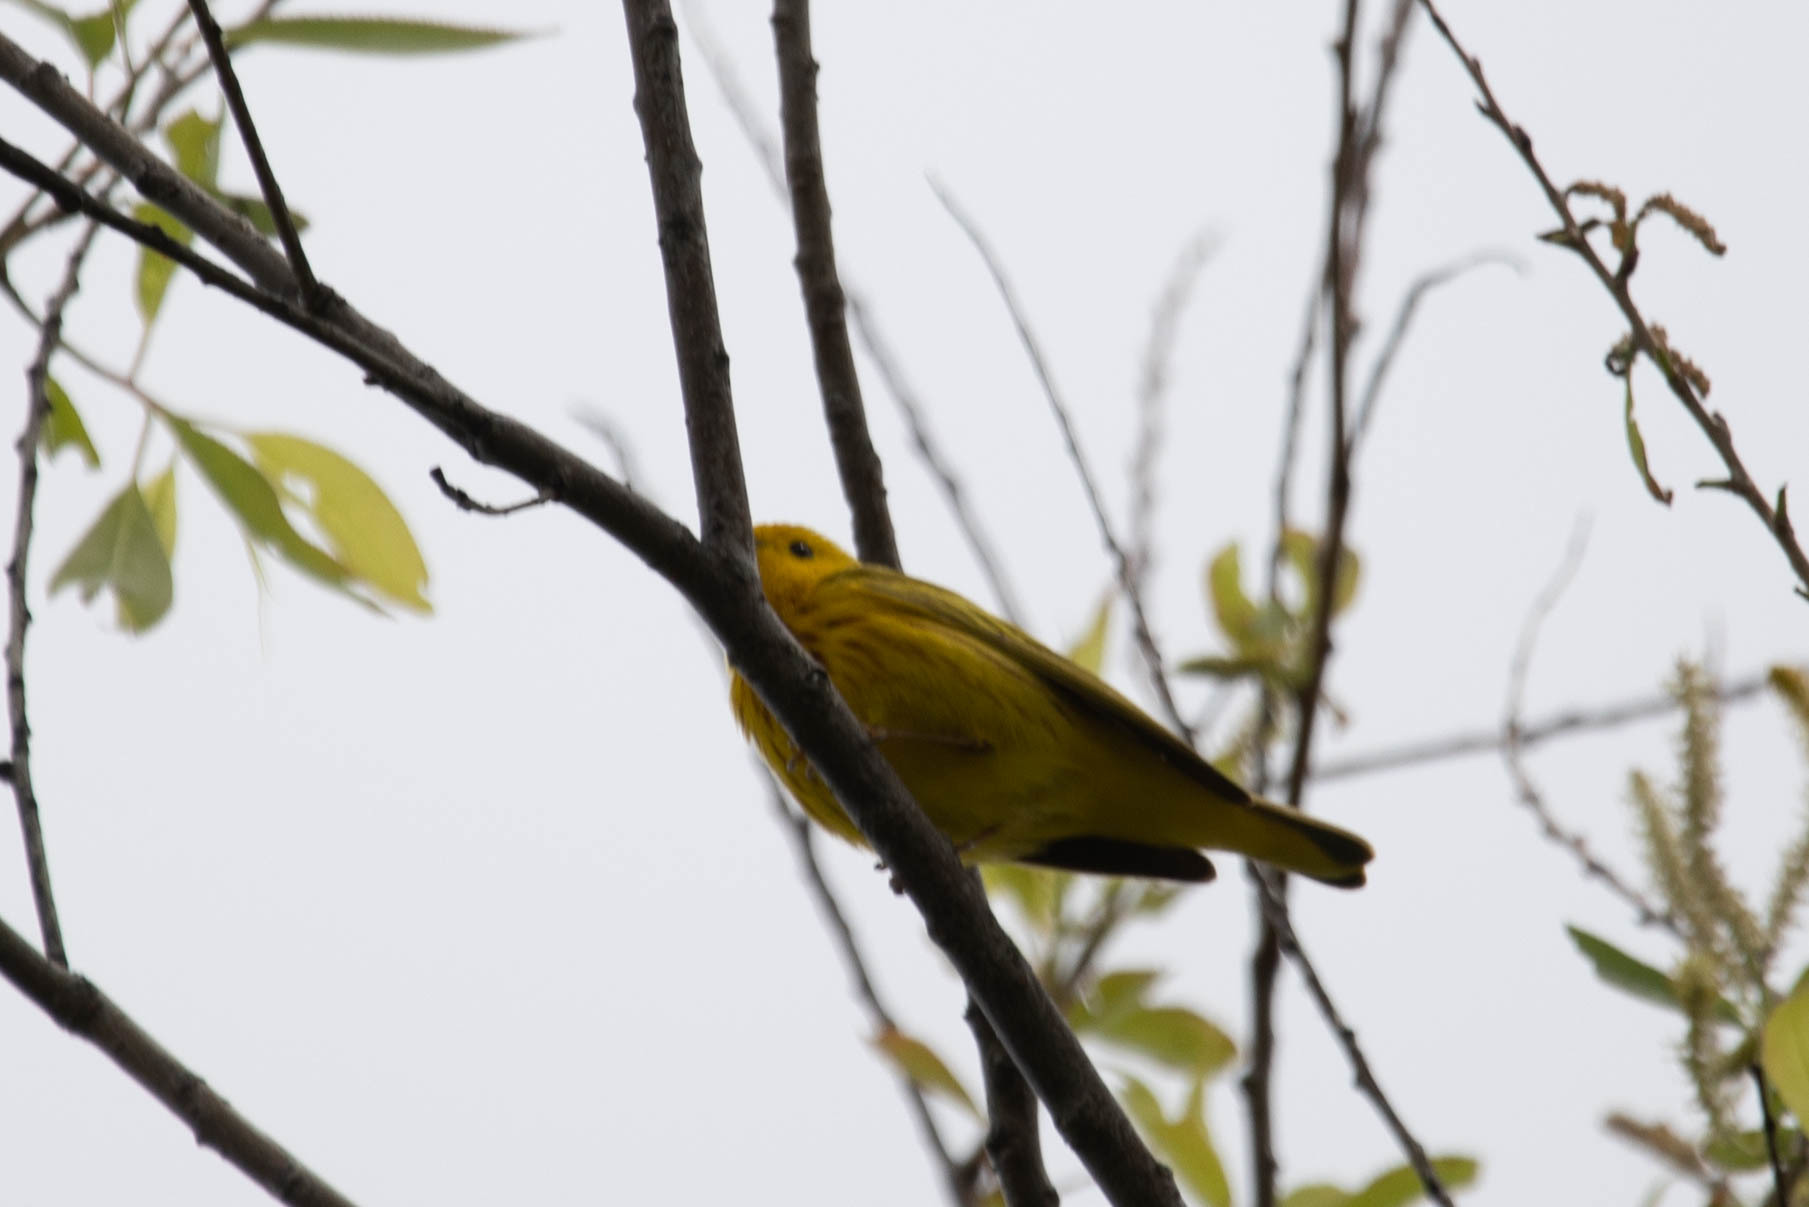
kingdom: Animalia
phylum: Chordata
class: Aves
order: Passeriformes
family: Parulidae
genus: Setophaga
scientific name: Setophaga petechia
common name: Yellow warbler
